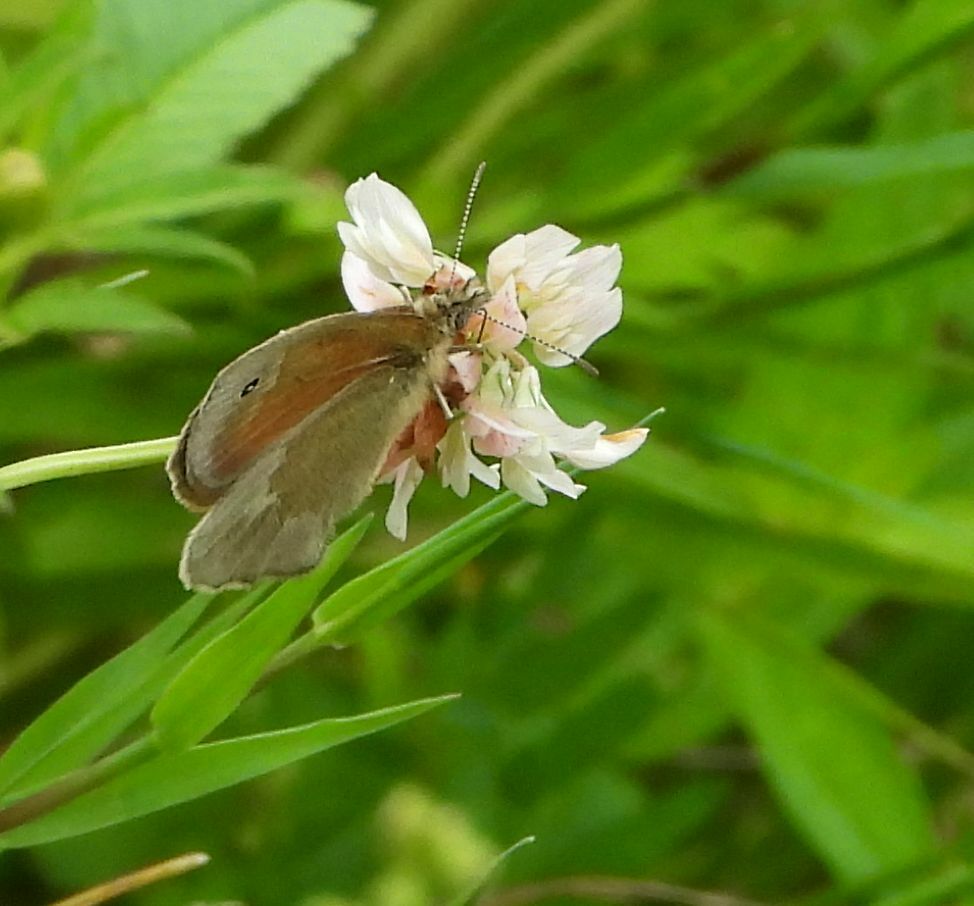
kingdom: Animalia
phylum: Arthropoda
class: Insecta
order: Lepidoptera
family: Nymphalidae
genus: Coenonympha
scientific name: Coenonympha california
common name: Common ringlet
